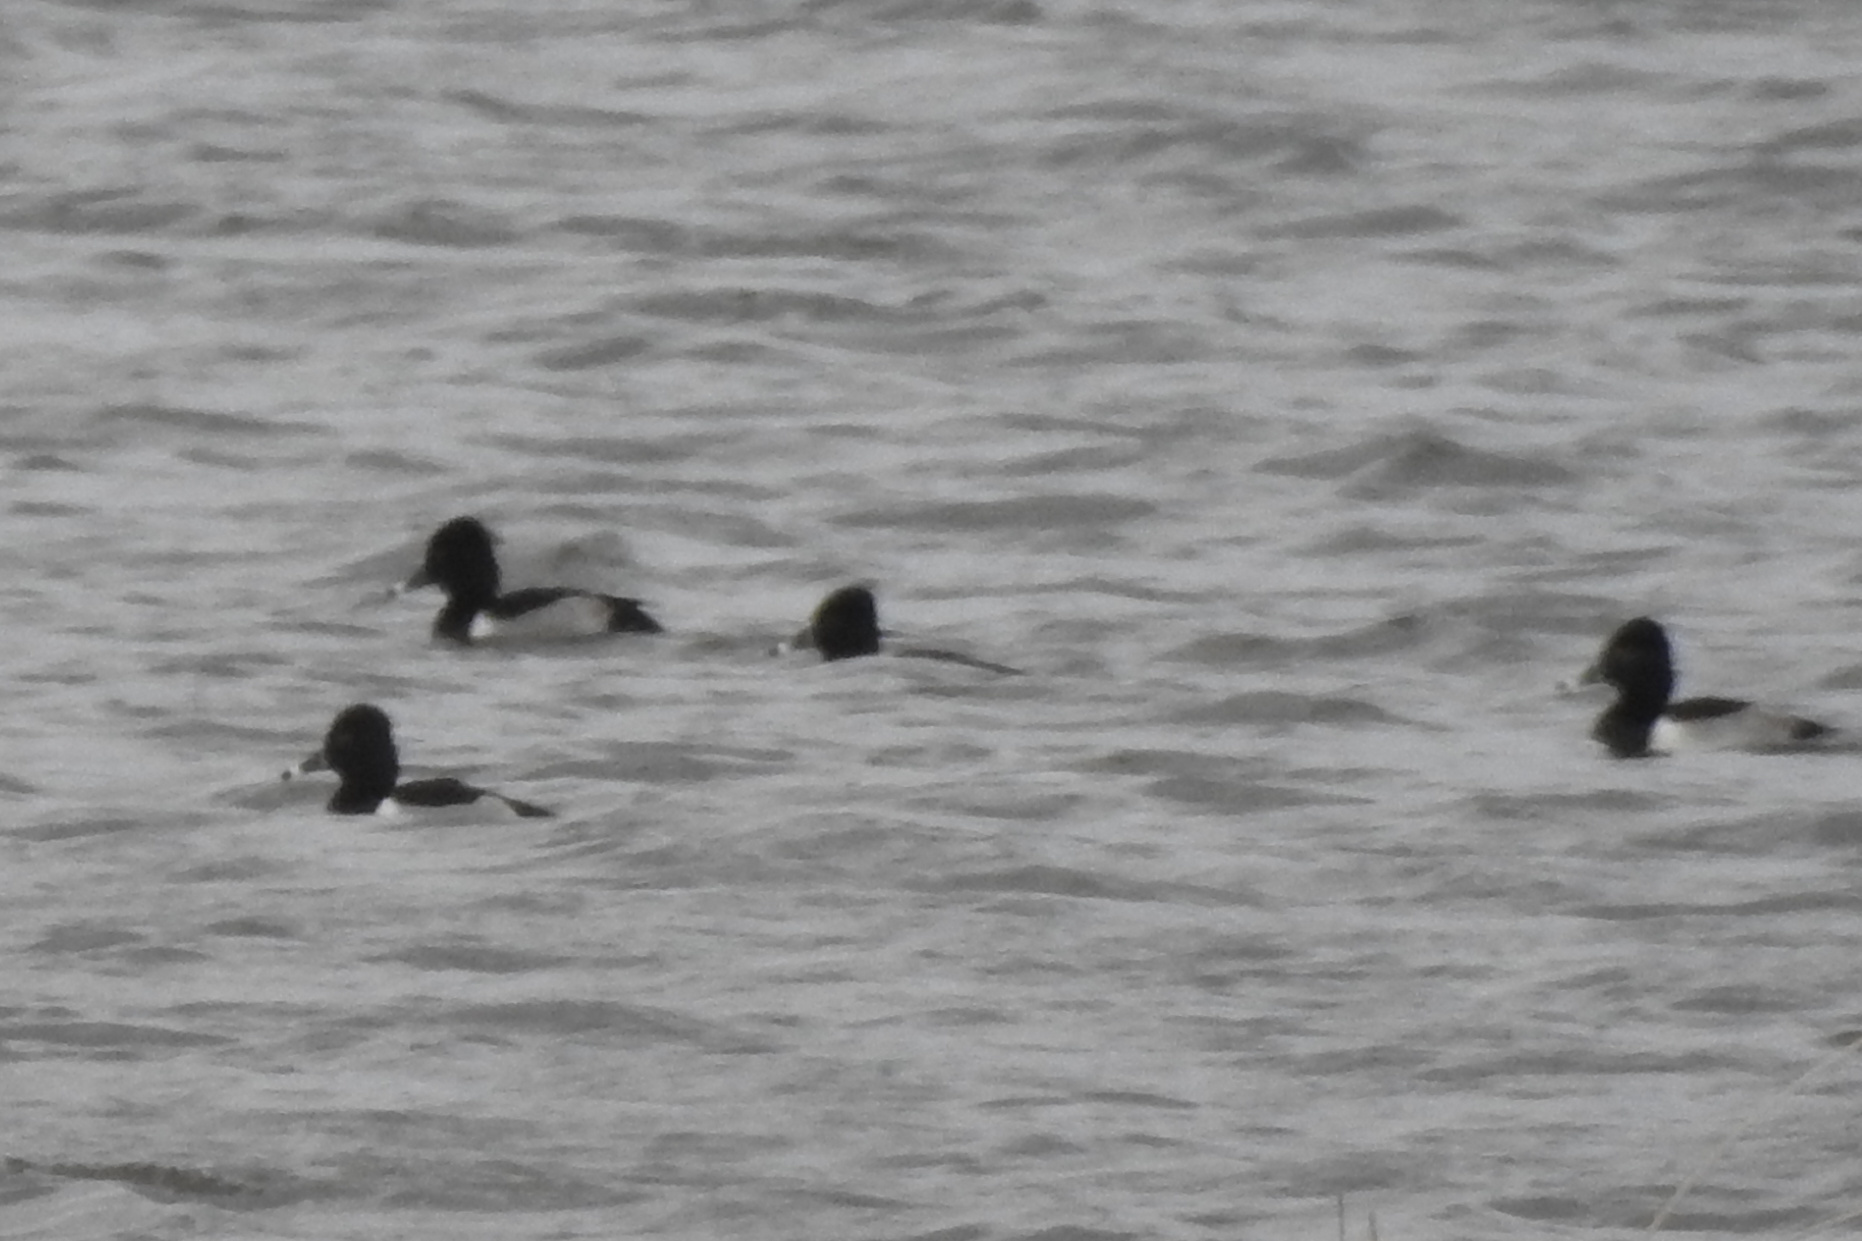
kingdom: Animalia
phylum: Chordata
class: Aves
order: Anseriformes
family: Anatidae
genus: Aythya
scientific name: Aythya collaris
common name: Ring-necked duck
